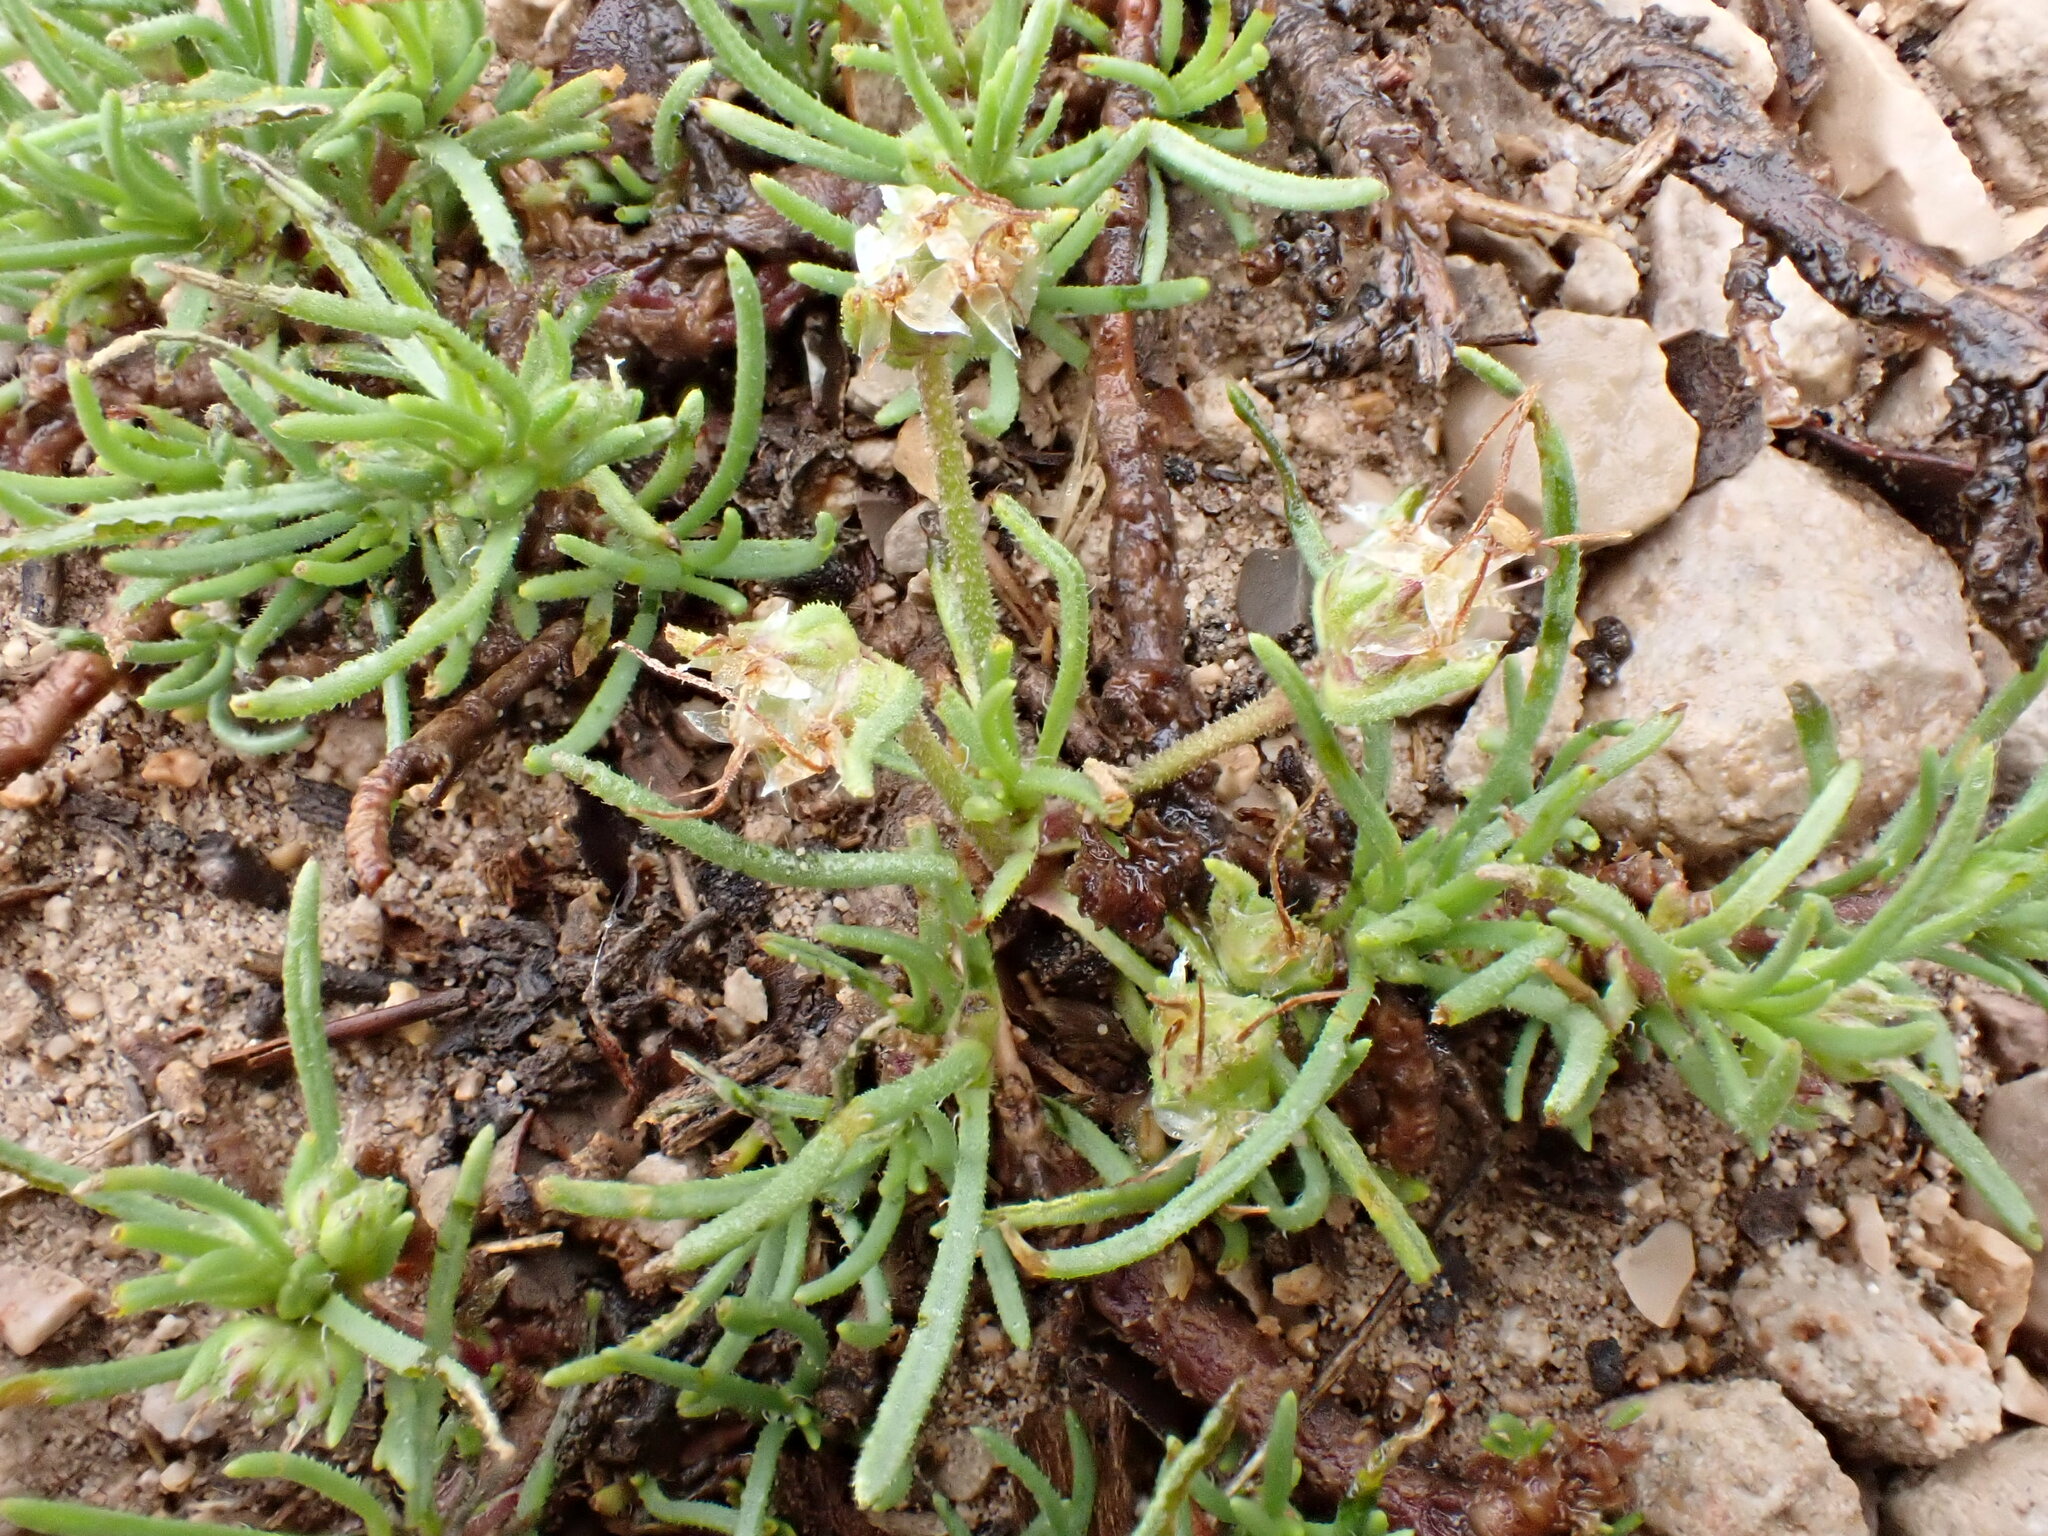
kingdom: Plantae
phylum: Tracheophyta
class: Magnoliopsida
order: Lamiales
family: Plantaginaceae
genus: Plantago
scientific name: Plantago sempervirens
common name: Shrubby plantain
